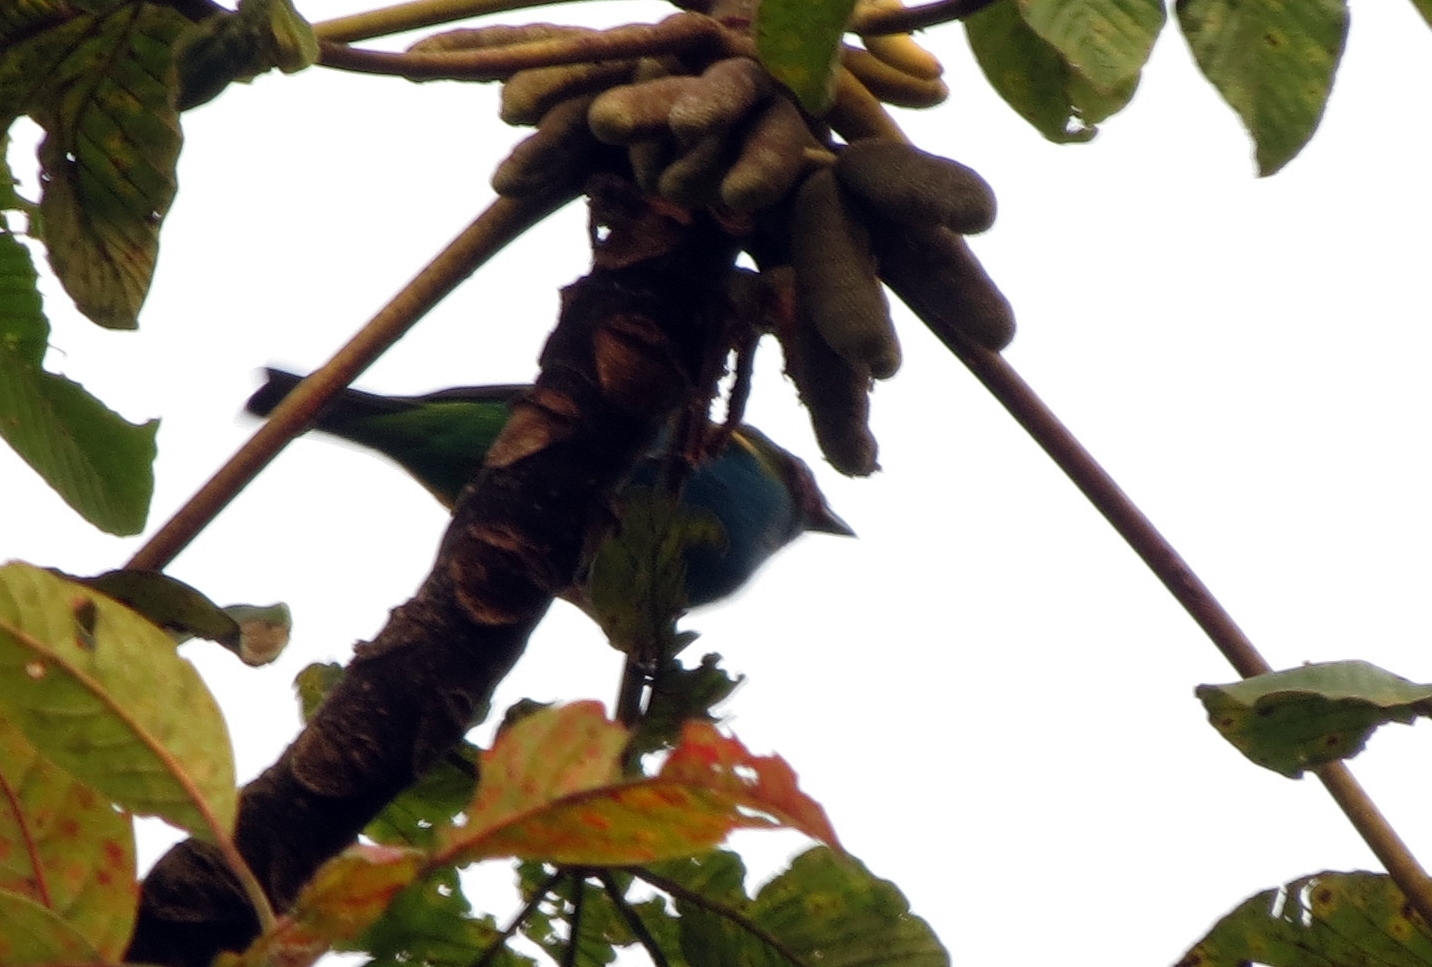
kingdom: Animalia
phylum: Chordata
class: Aves
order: Passeriformes
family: Thraupidae
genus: Tangara
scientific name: Tangara gyrola
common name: Bay-headed tanager
